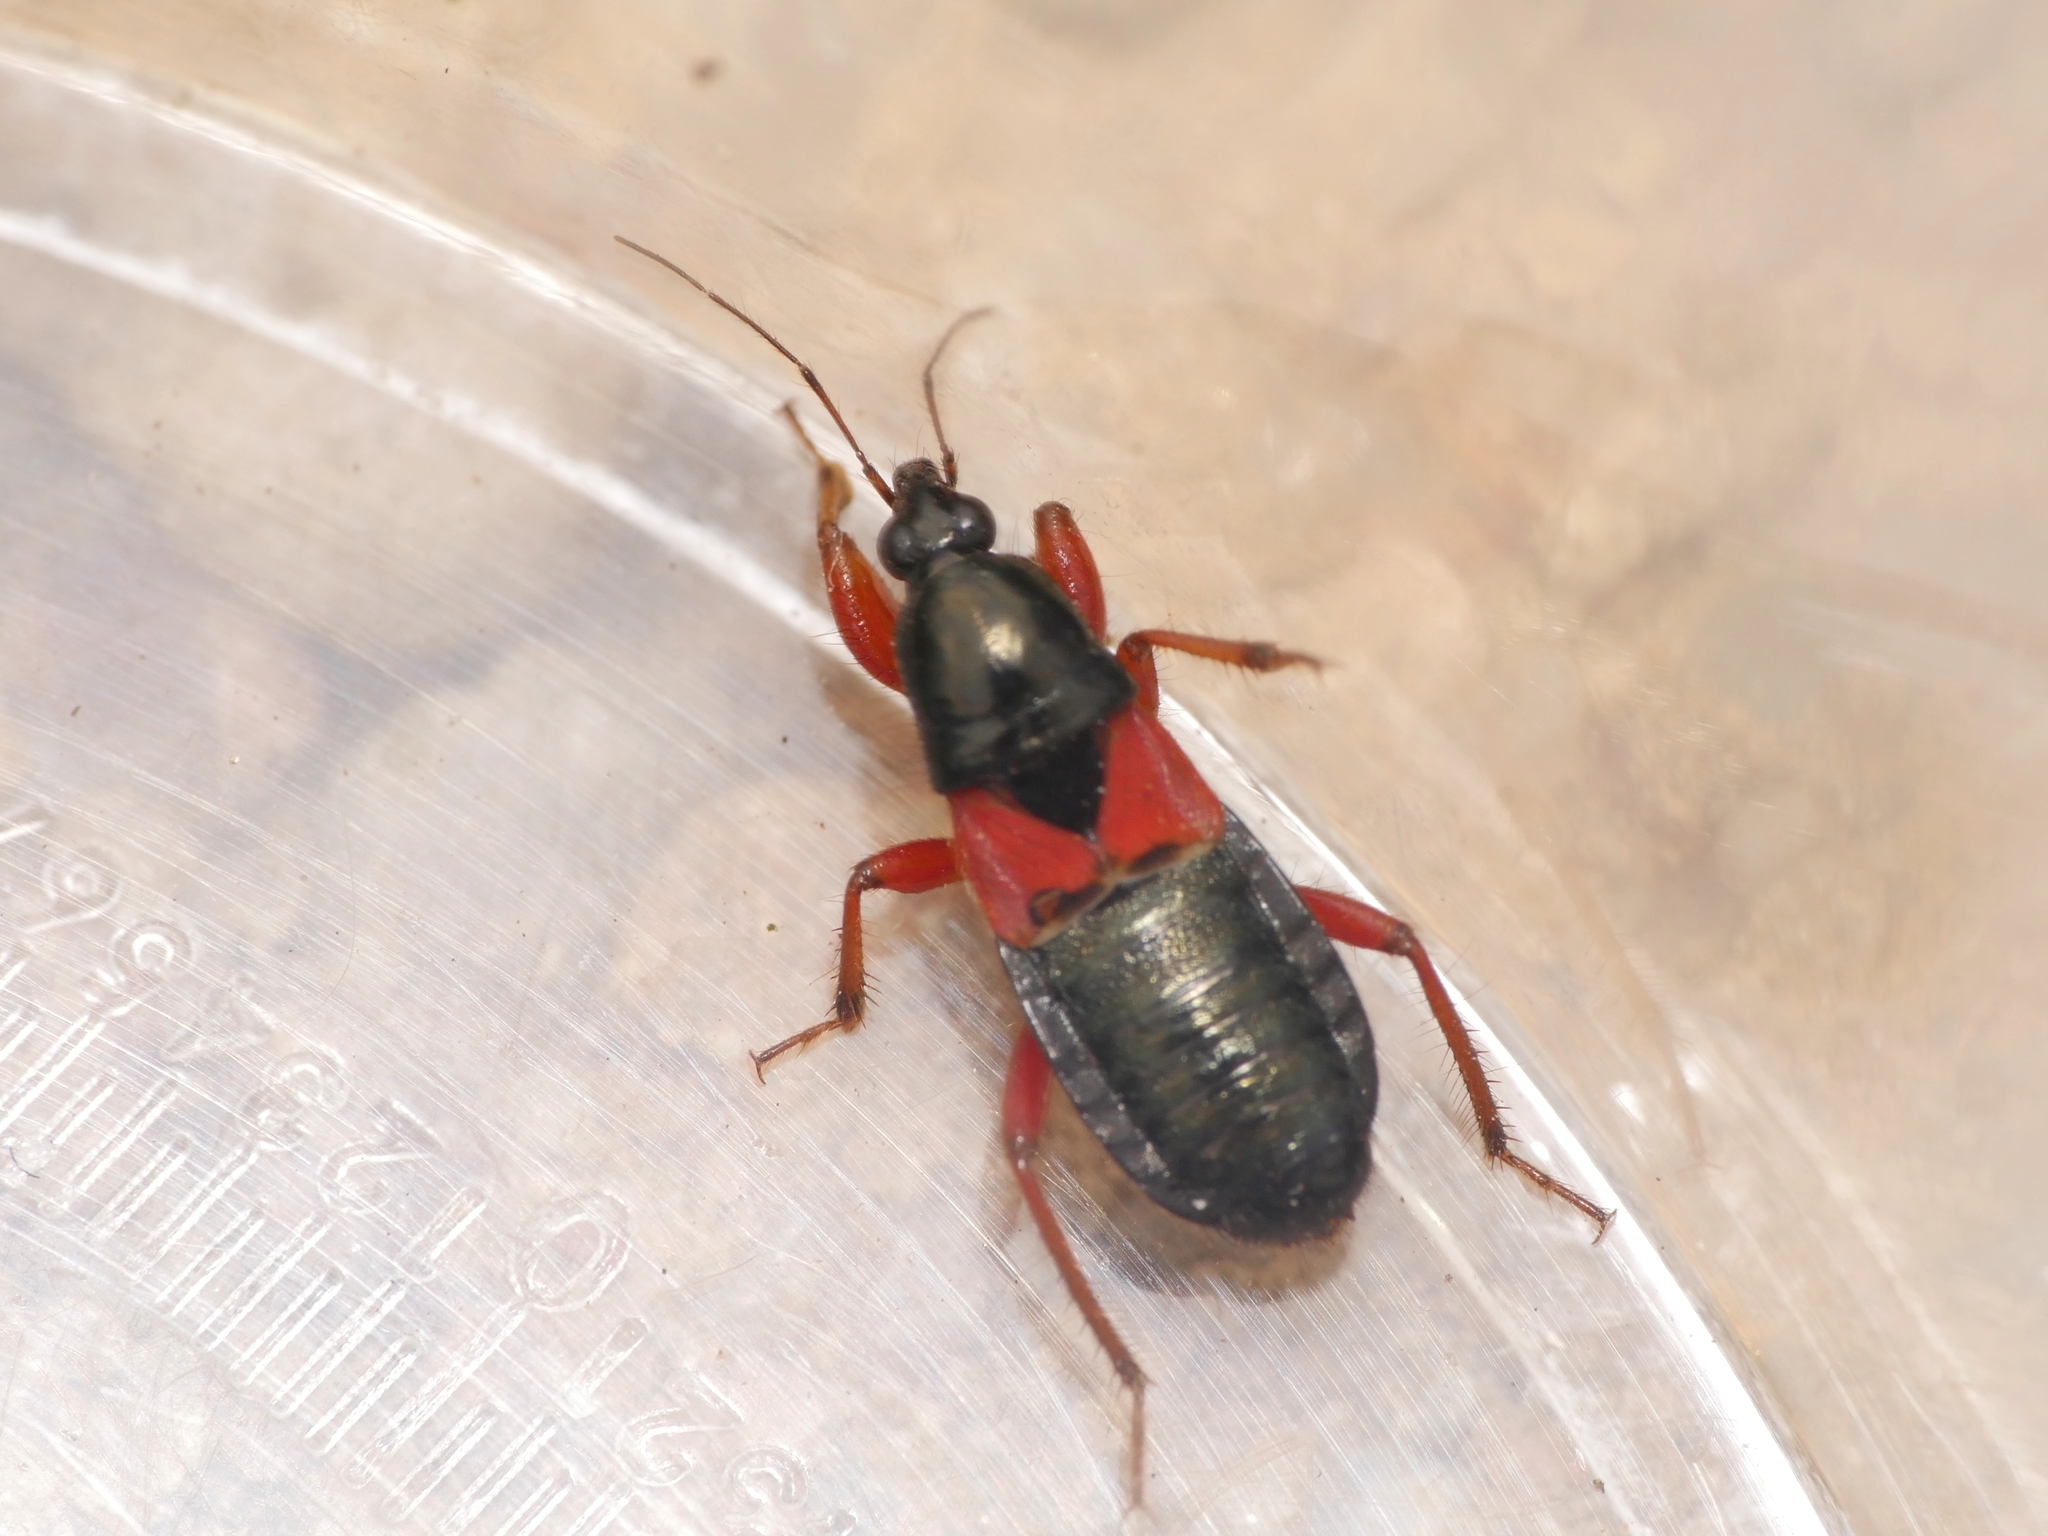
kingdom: Animalia
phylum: Arthropoda
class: Insecta
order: Hemiptera
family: Nabidae
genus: Prostemma
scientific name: Prostemma guttula
